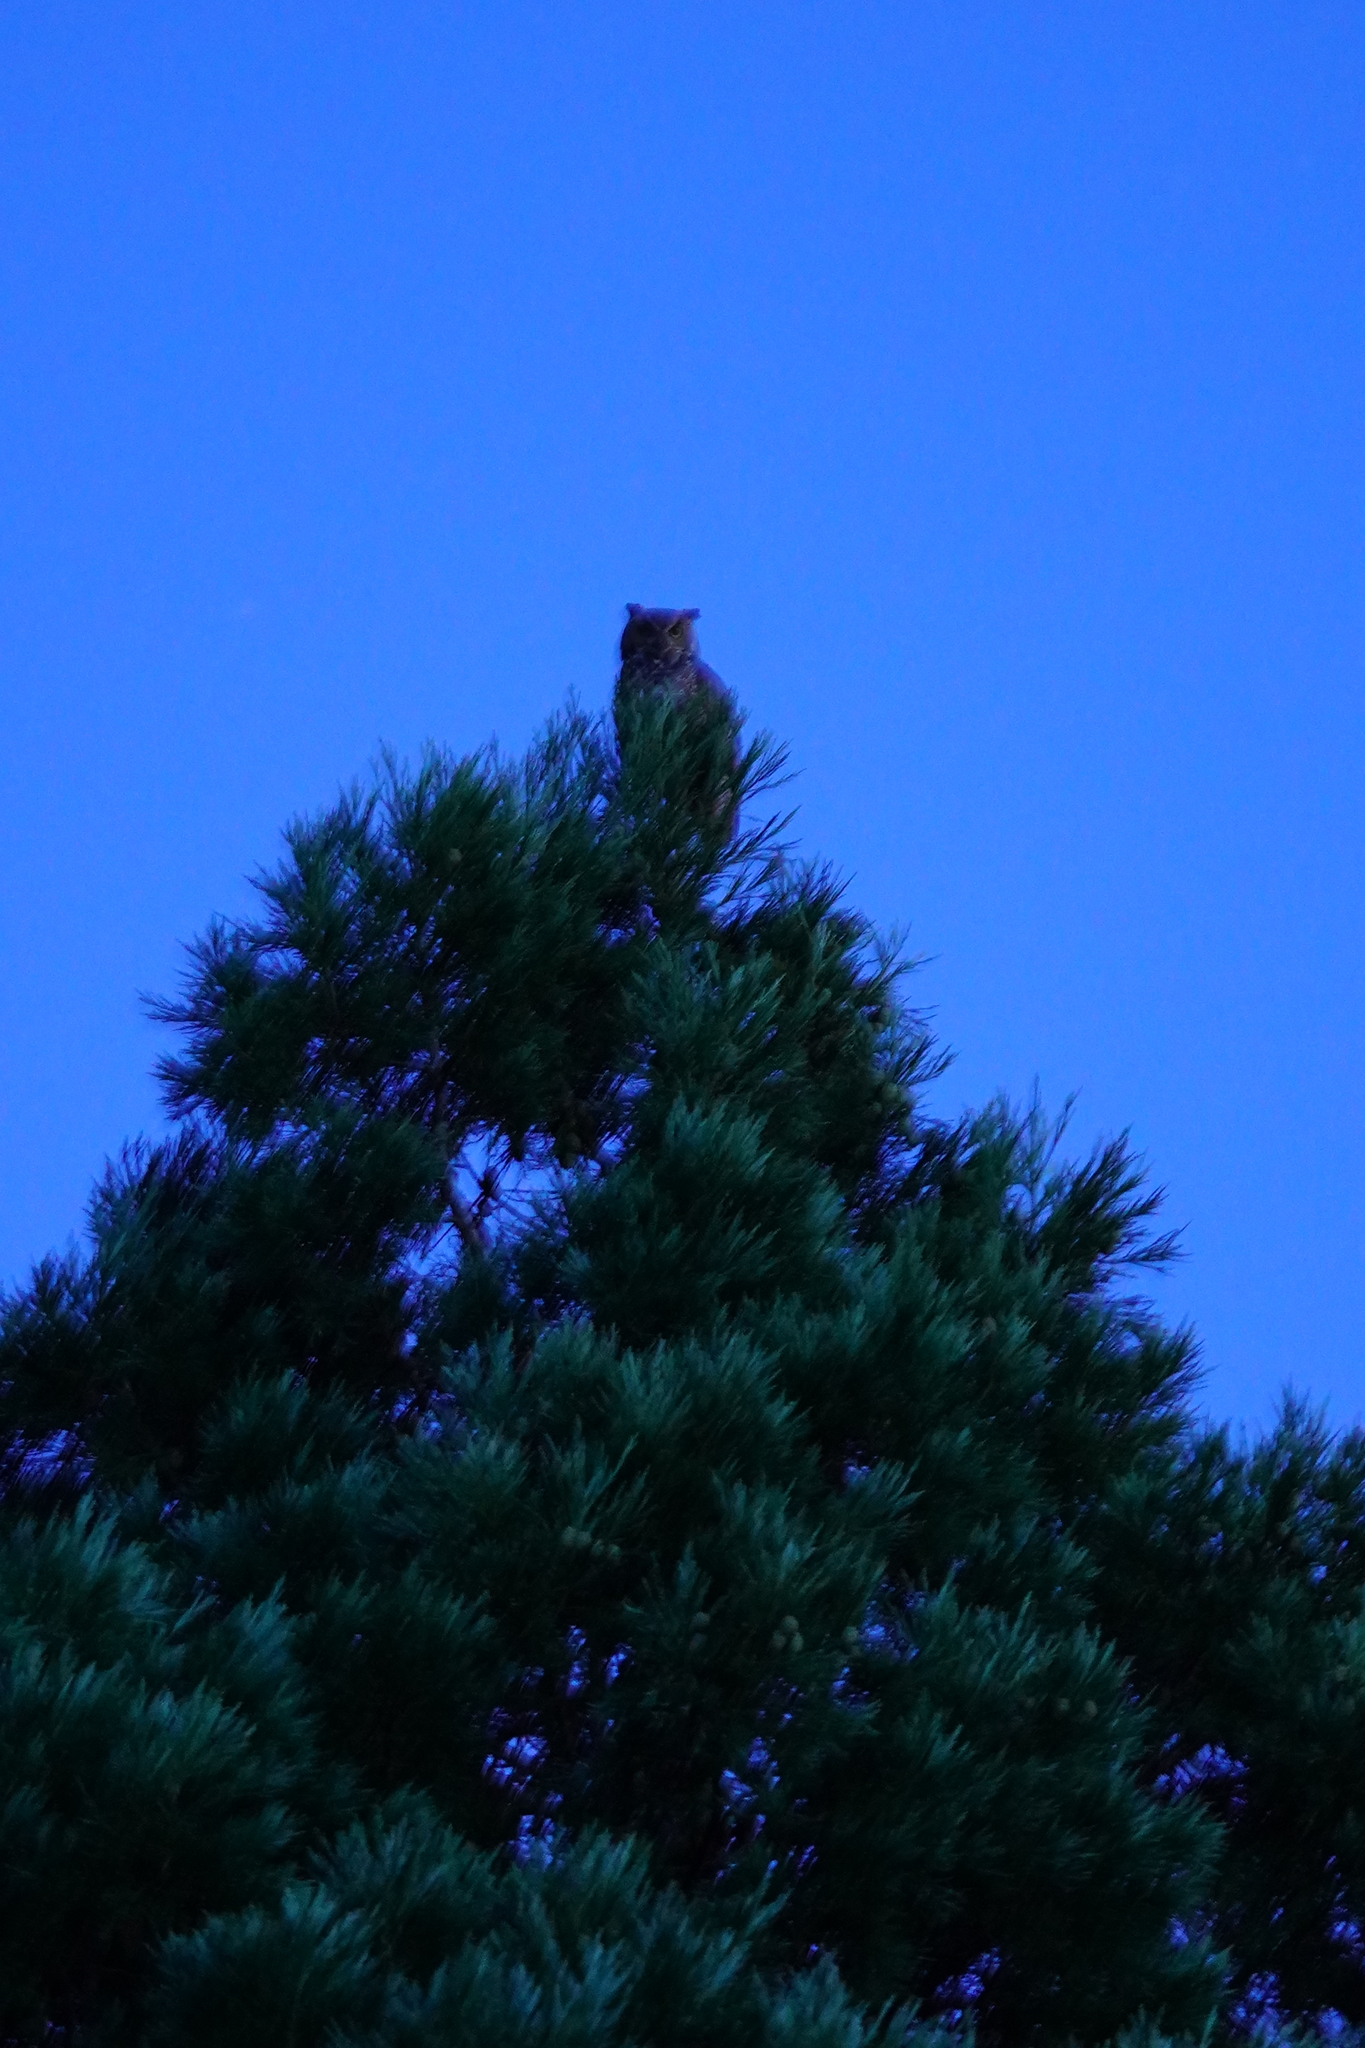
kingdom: Animalia
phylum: Chordata
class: Aves
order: Strigiformes
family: Strigidae
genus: Bubo
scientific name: Bubo virginianus
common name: Great horned owl
